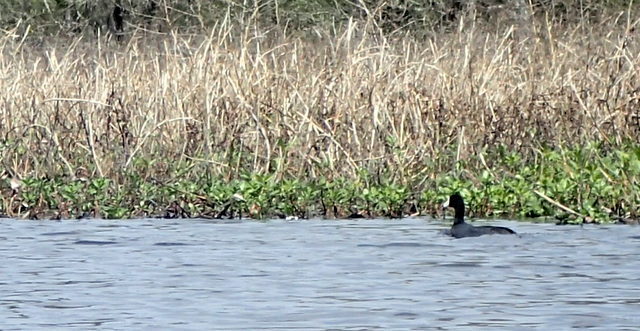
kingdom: Animalia
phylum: Chordata
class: Aves
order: Gruiformes
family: Rallidae
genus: Fulica
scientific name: Fulica americana
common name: American coot
